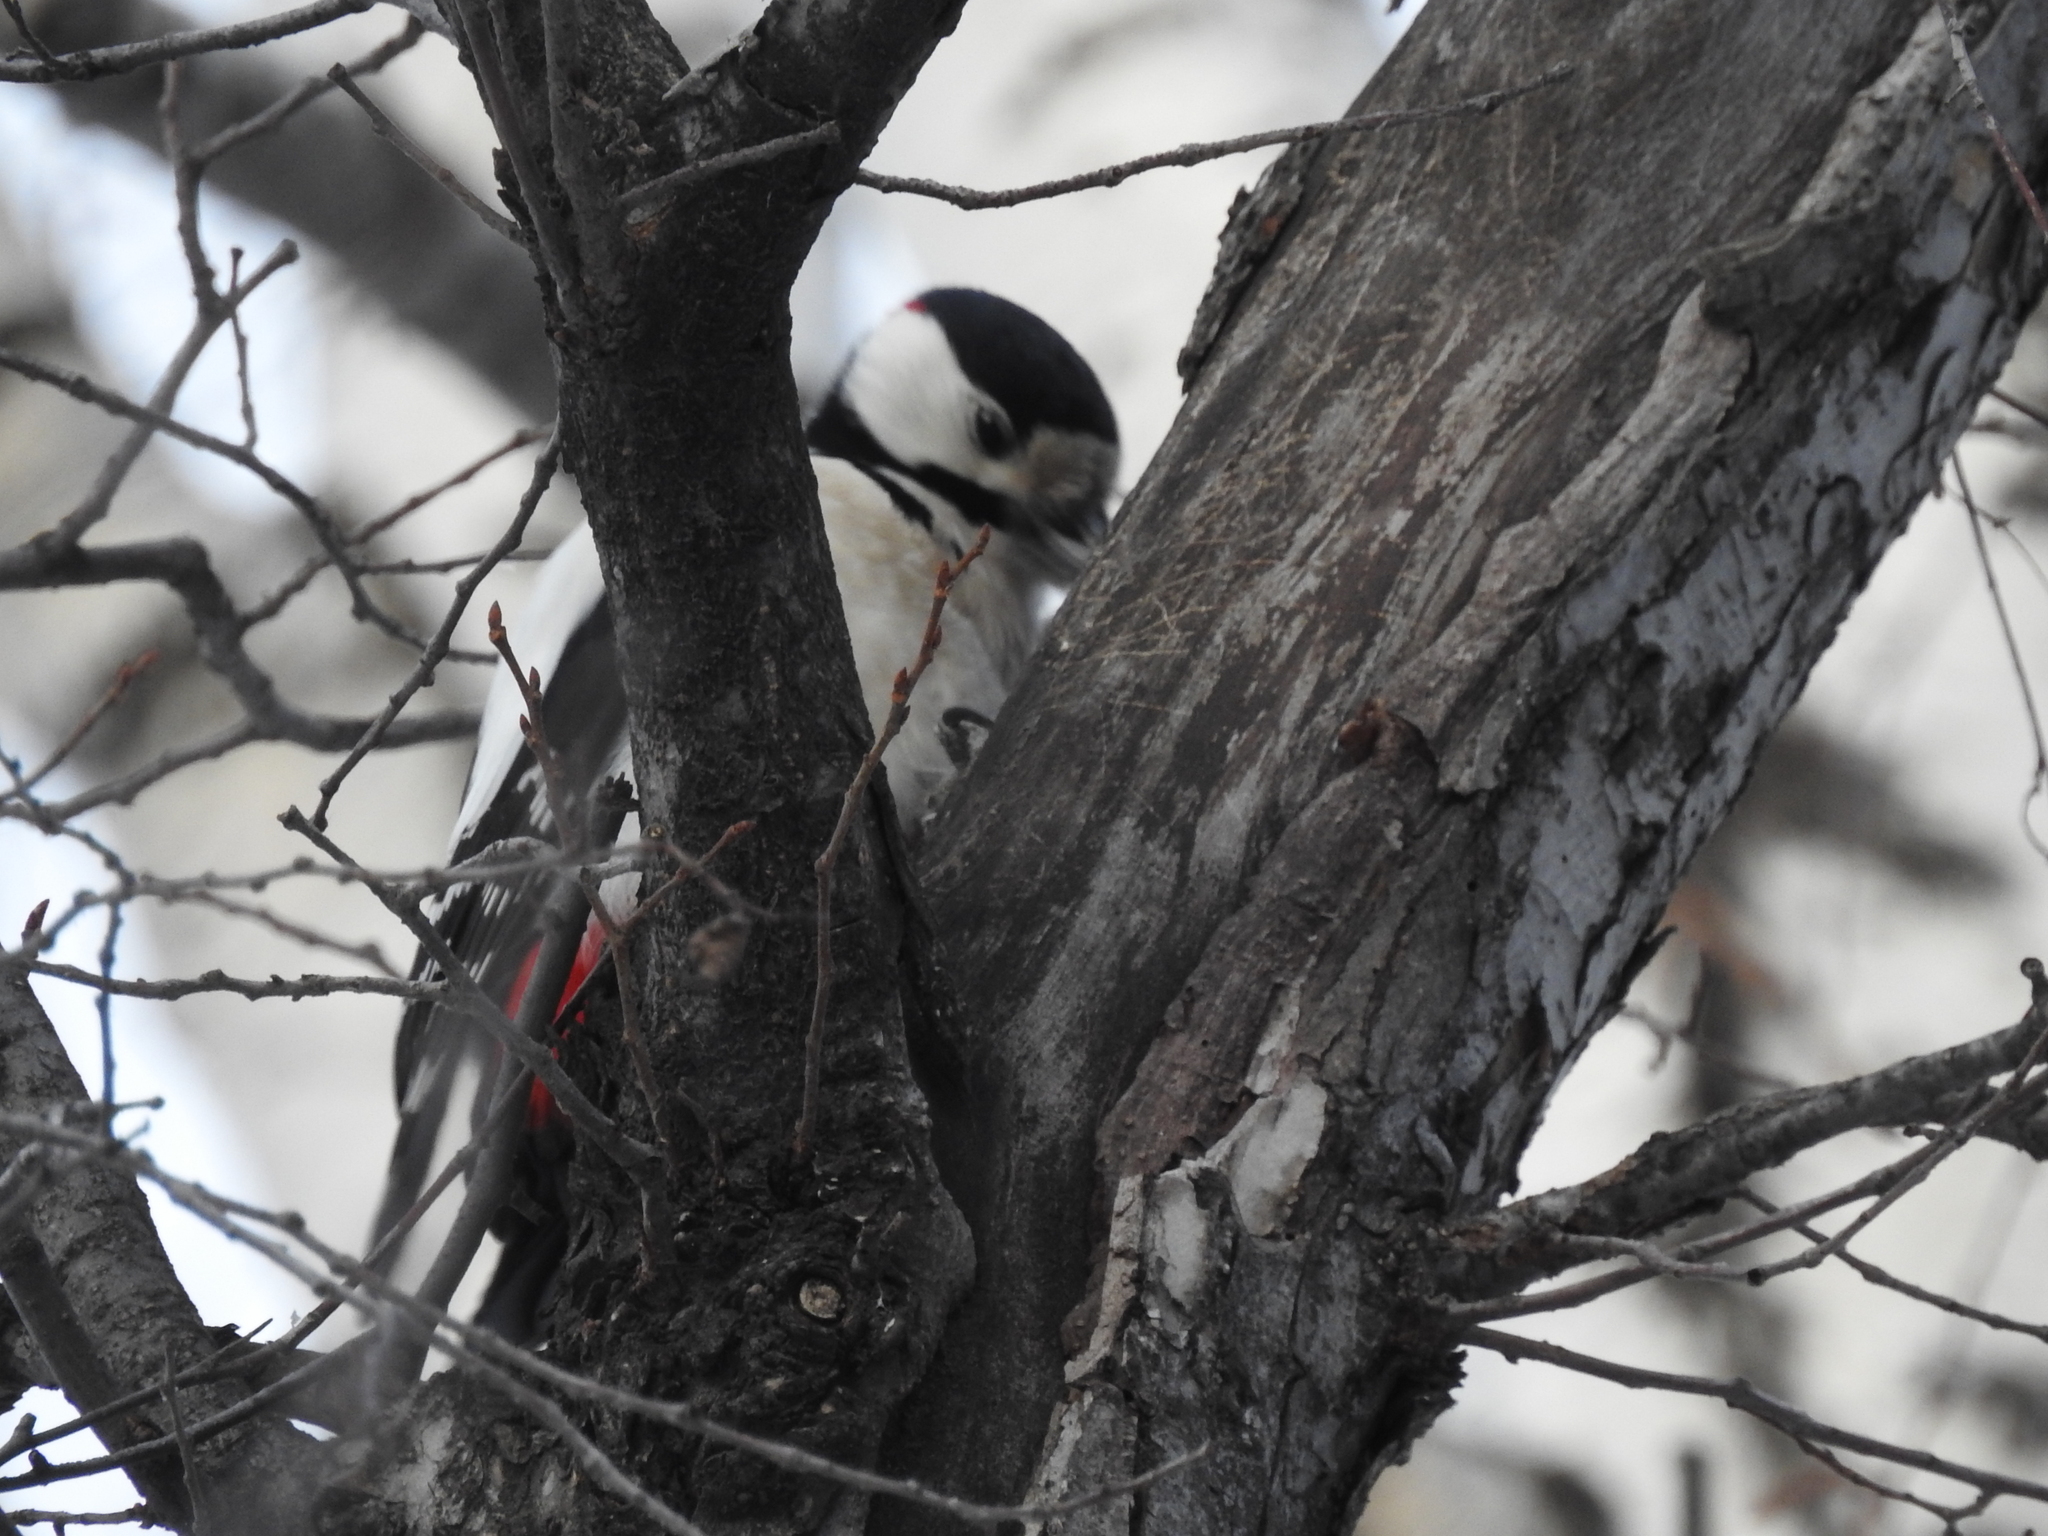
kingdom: Animalia
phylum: Chordata
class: Aves
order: Piciformes
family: Picidae
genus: Dendrocopos
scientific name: Dendrocopos major
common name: Great spotted woodpecker
